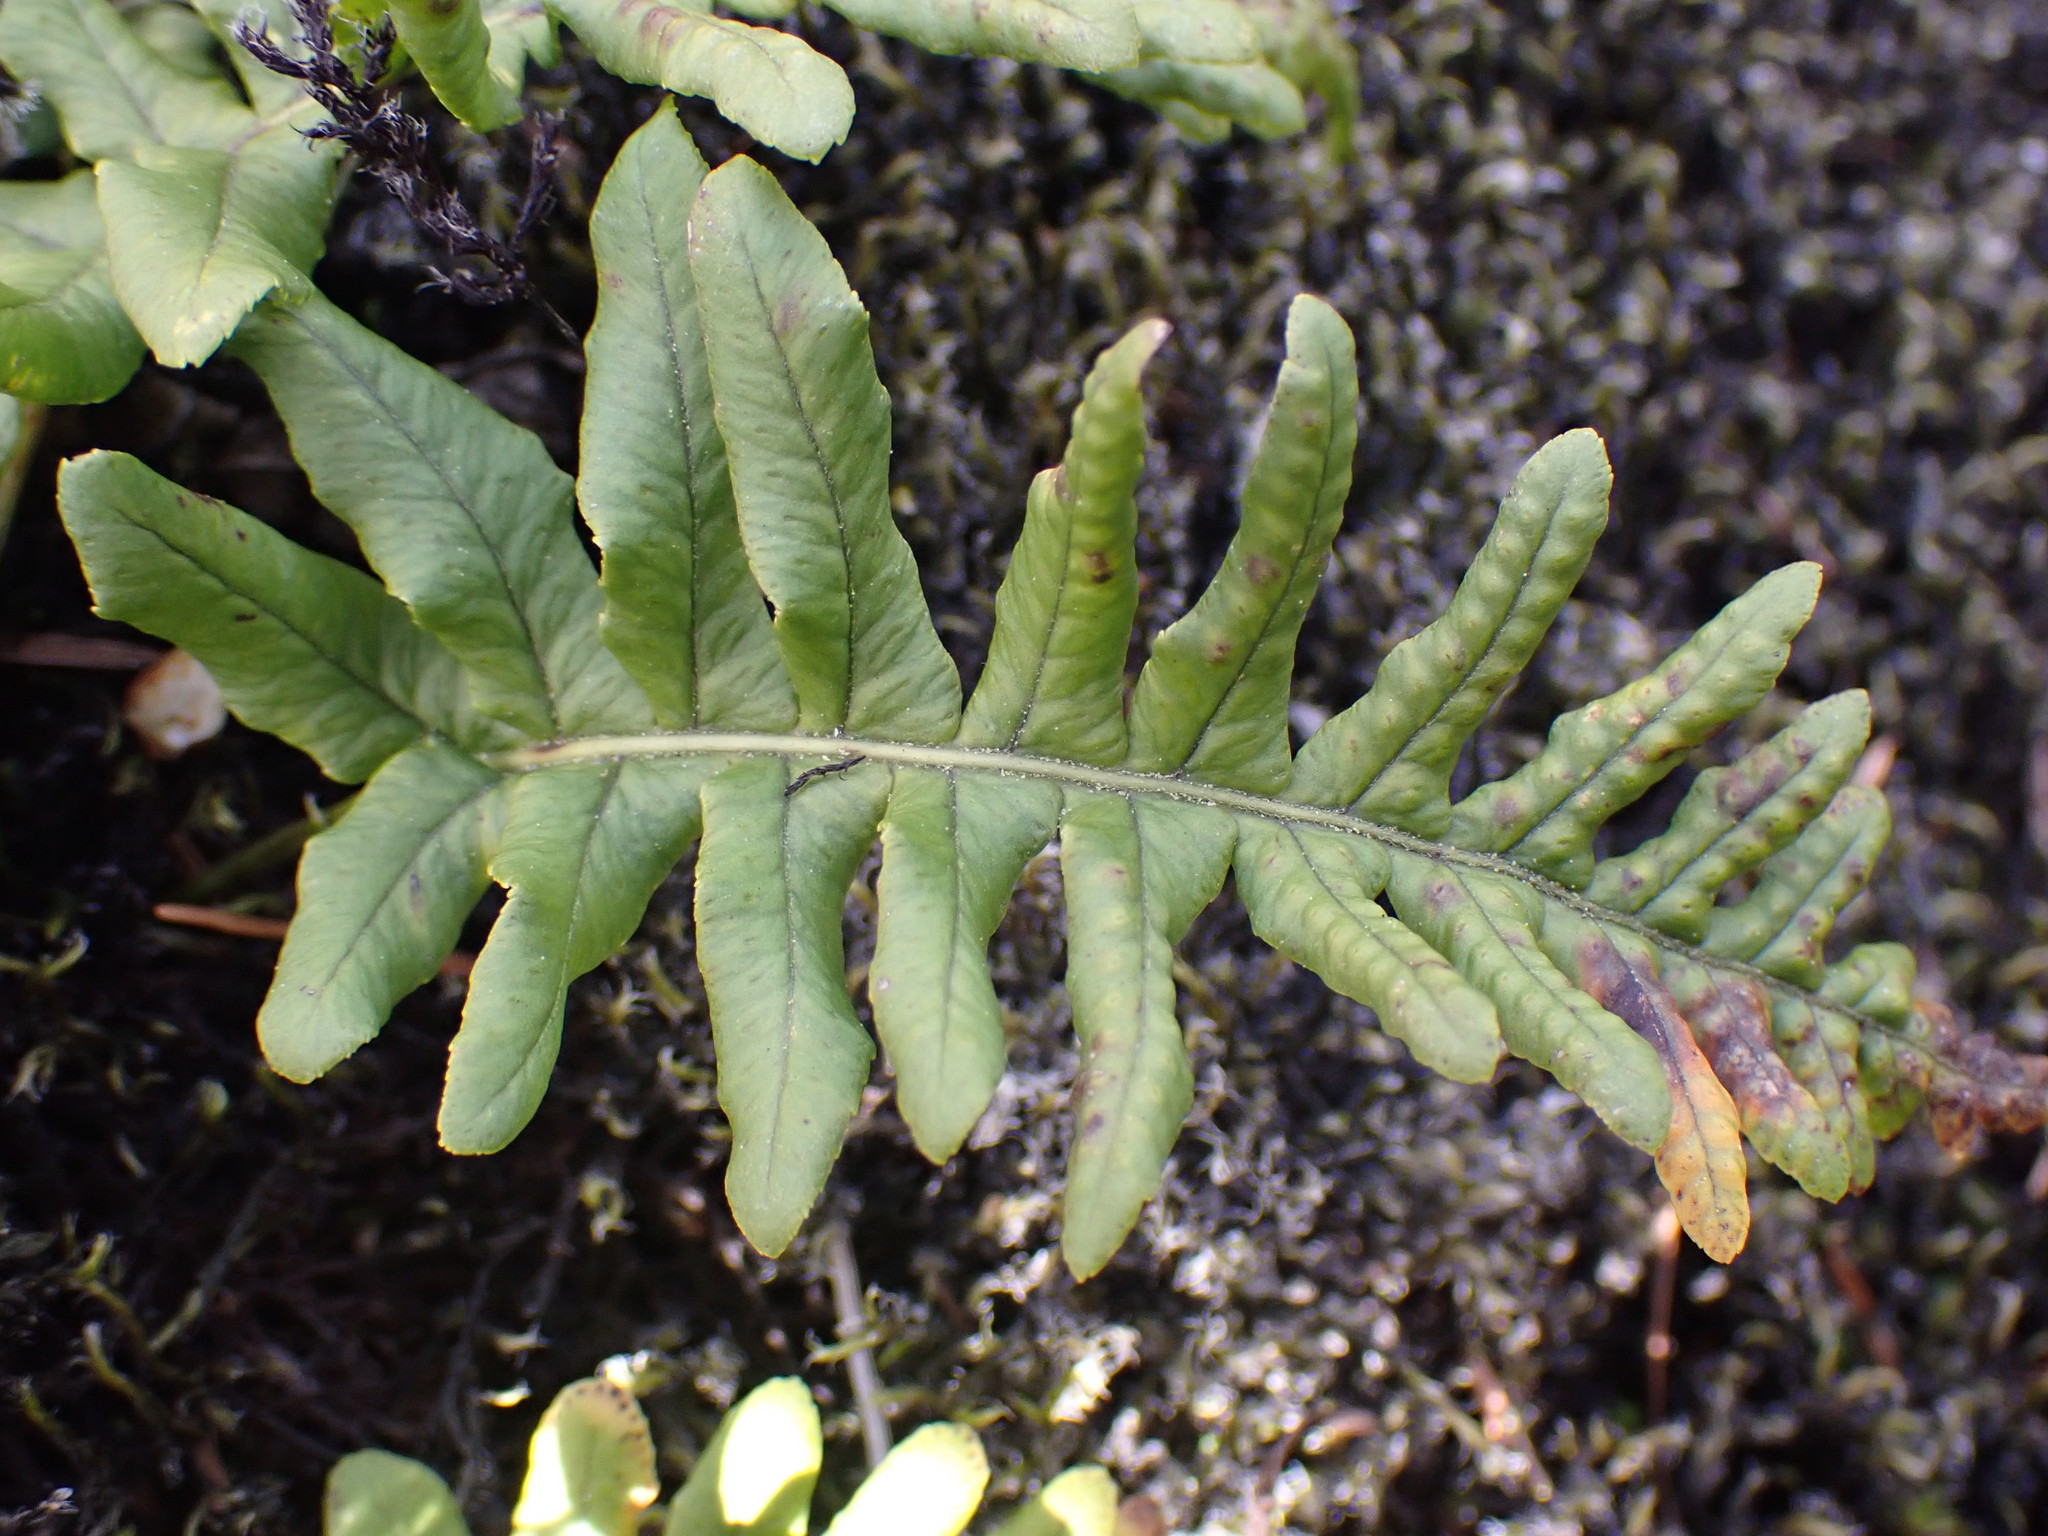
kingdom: Plantae
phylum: Tracheophyta
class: Polypodiopsida
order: Polypodiales
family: Polypodiaceae
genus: Polypodium
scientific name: Polypodium glycyrrhiza
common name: Licorice fern
